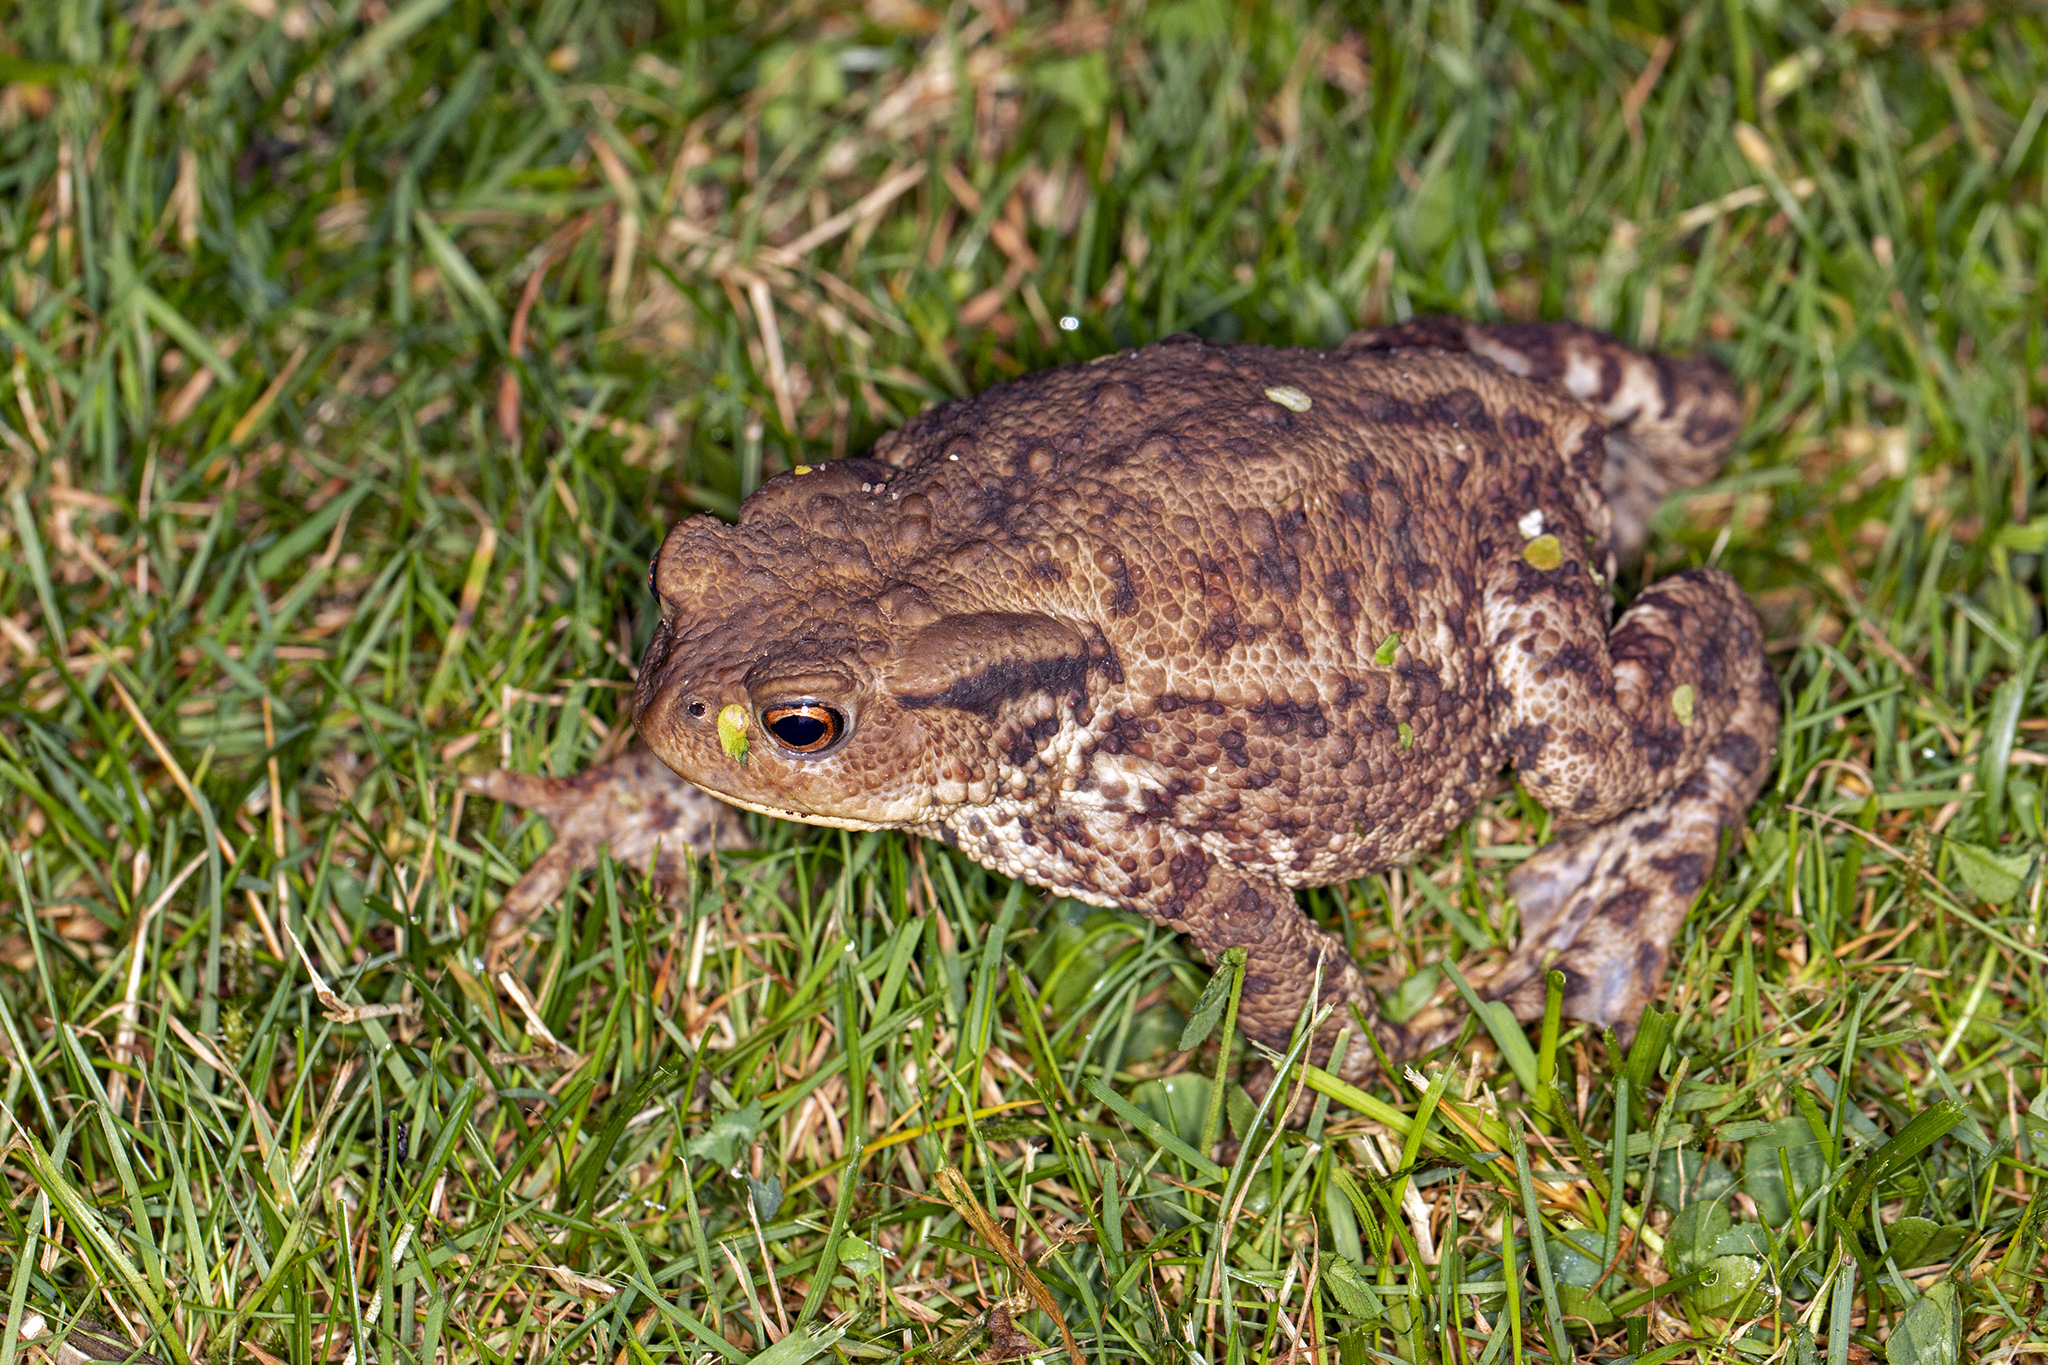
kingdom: Animalia
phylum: Chordata
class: Amphibia
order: Anura
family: Bufonidae
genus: Bufo
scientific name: Bufo bufo
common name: Common toad
